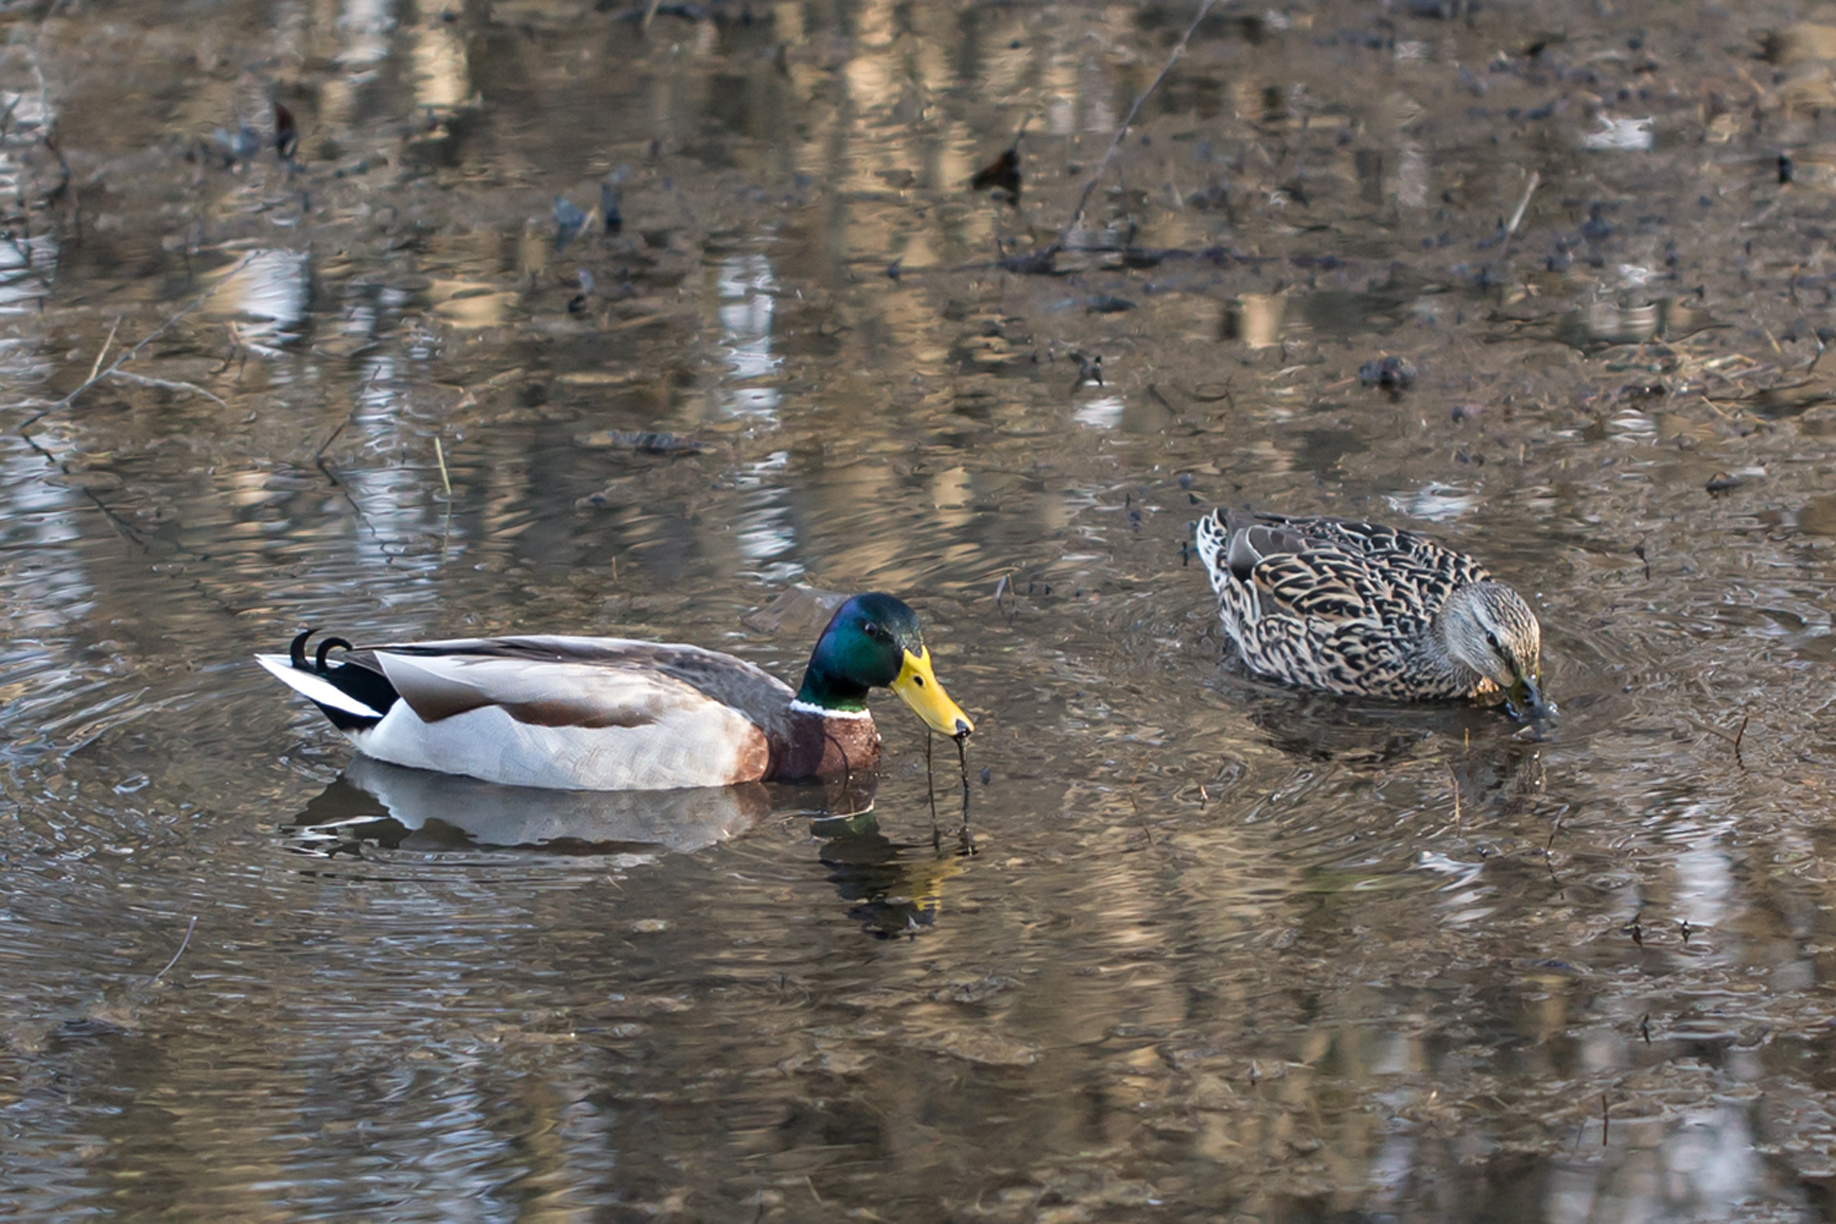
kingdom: Animalia
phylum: Chordata
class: Aves
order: Anseriformes
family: Anatidae
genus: Anas
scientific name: Anas platyrhynchos
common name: Mallard
